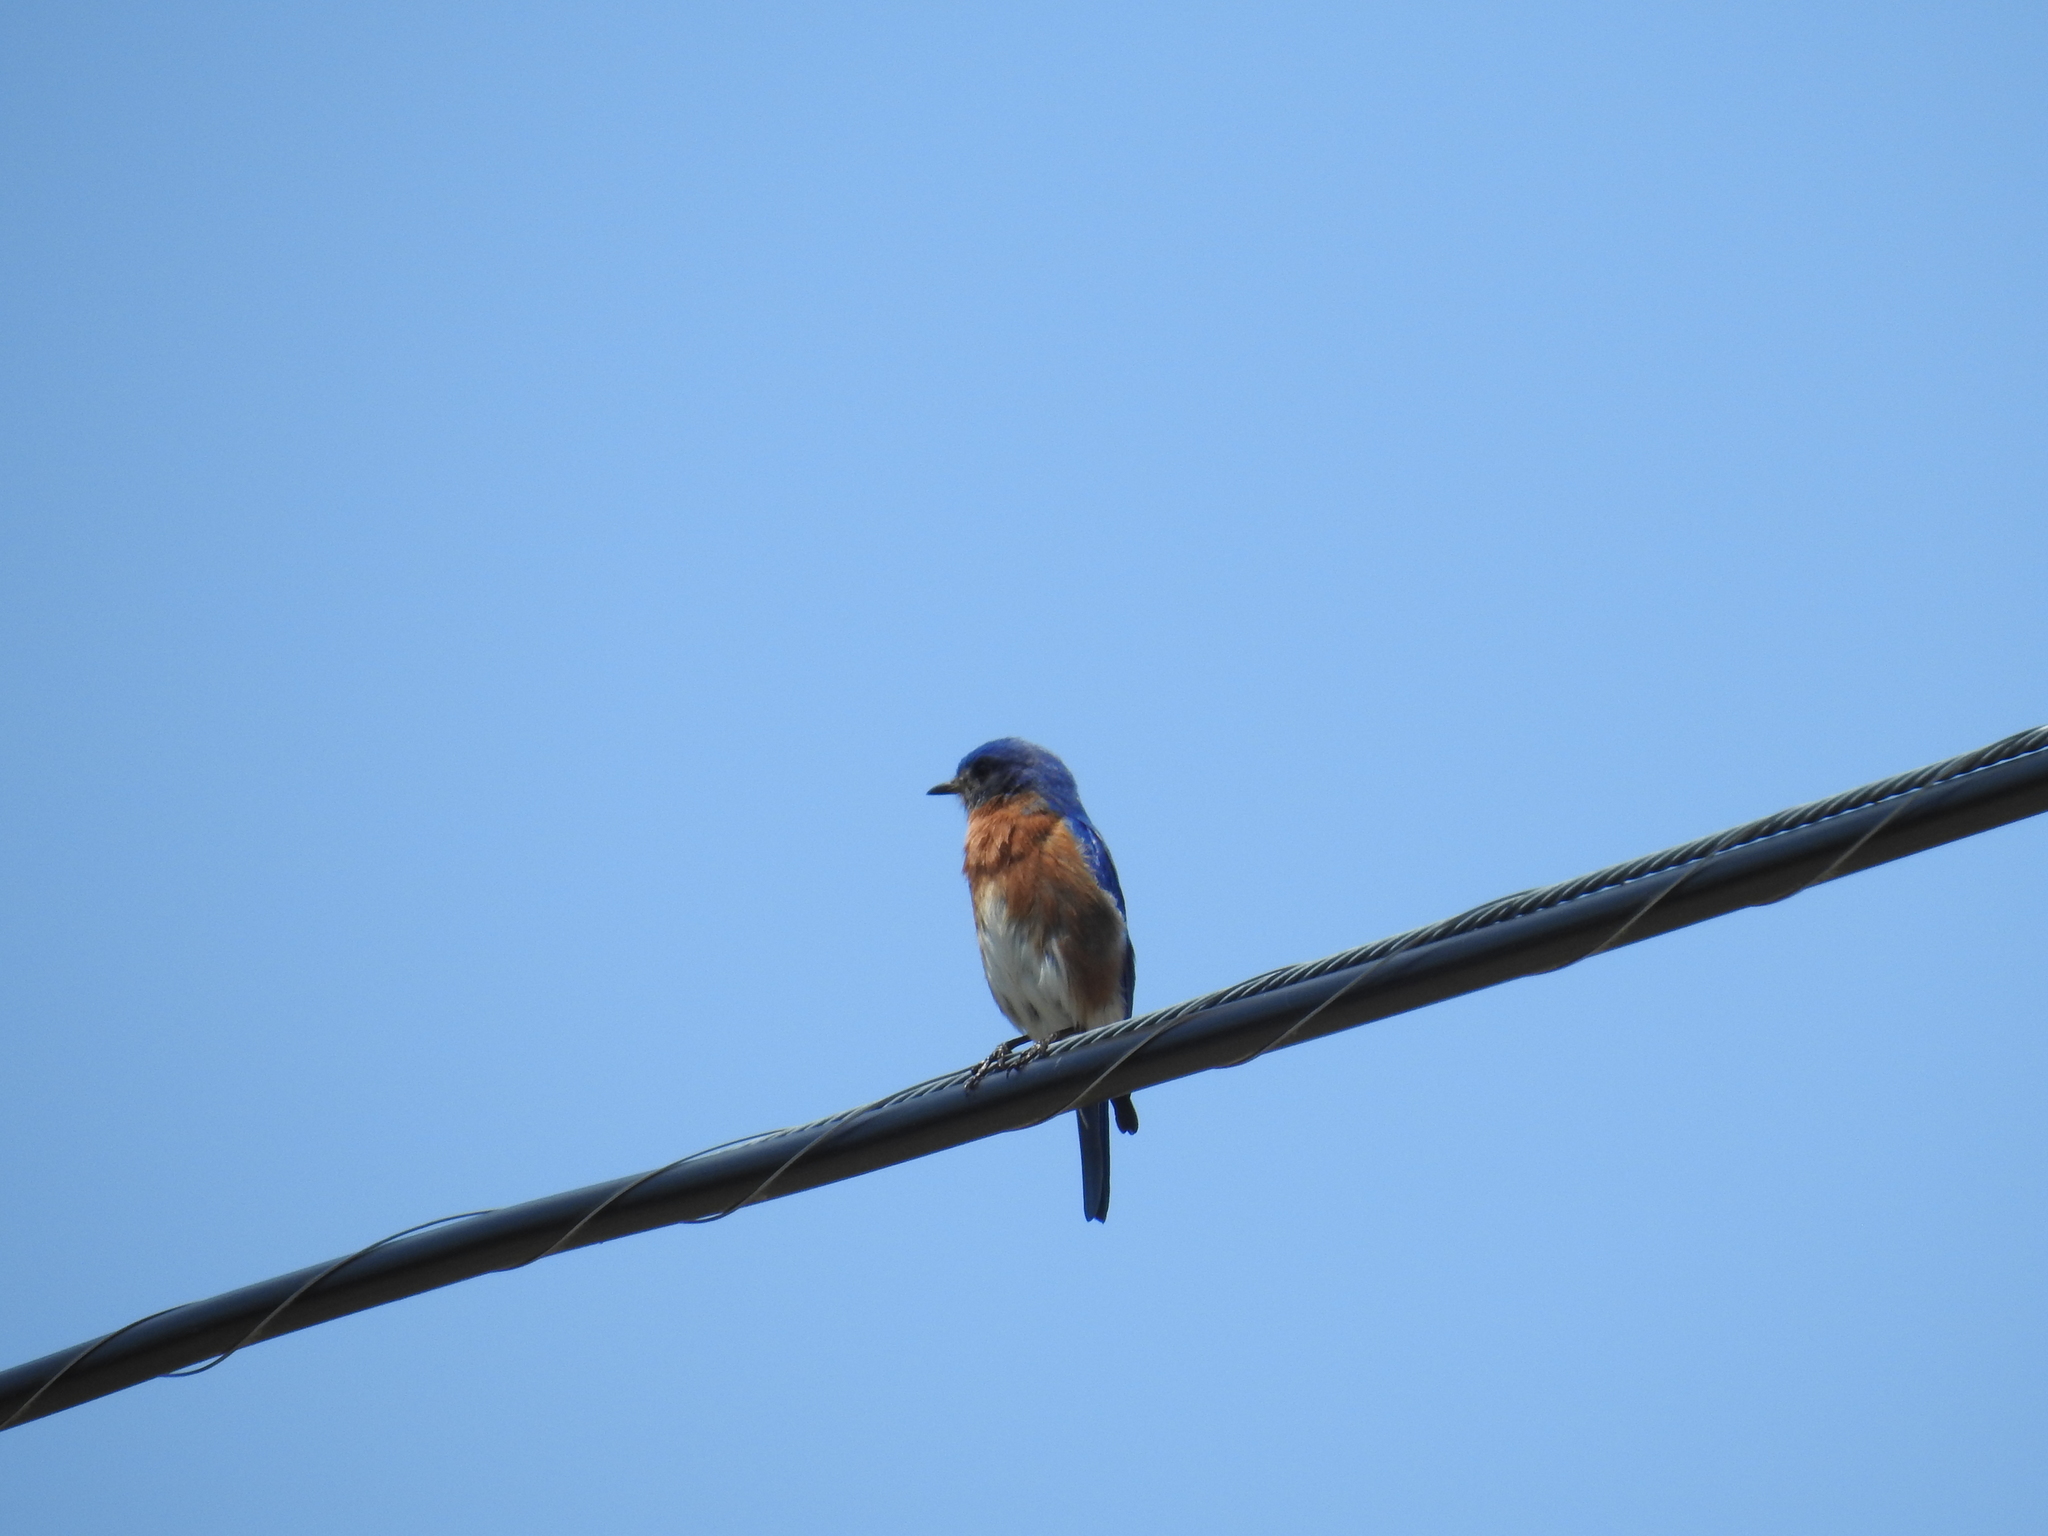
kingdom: Animalia
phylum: Chordata
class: Aves
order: Passeriformes
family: Turdidae
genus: Sialia
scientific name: Sialia sialis
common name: Eastern bluebird
